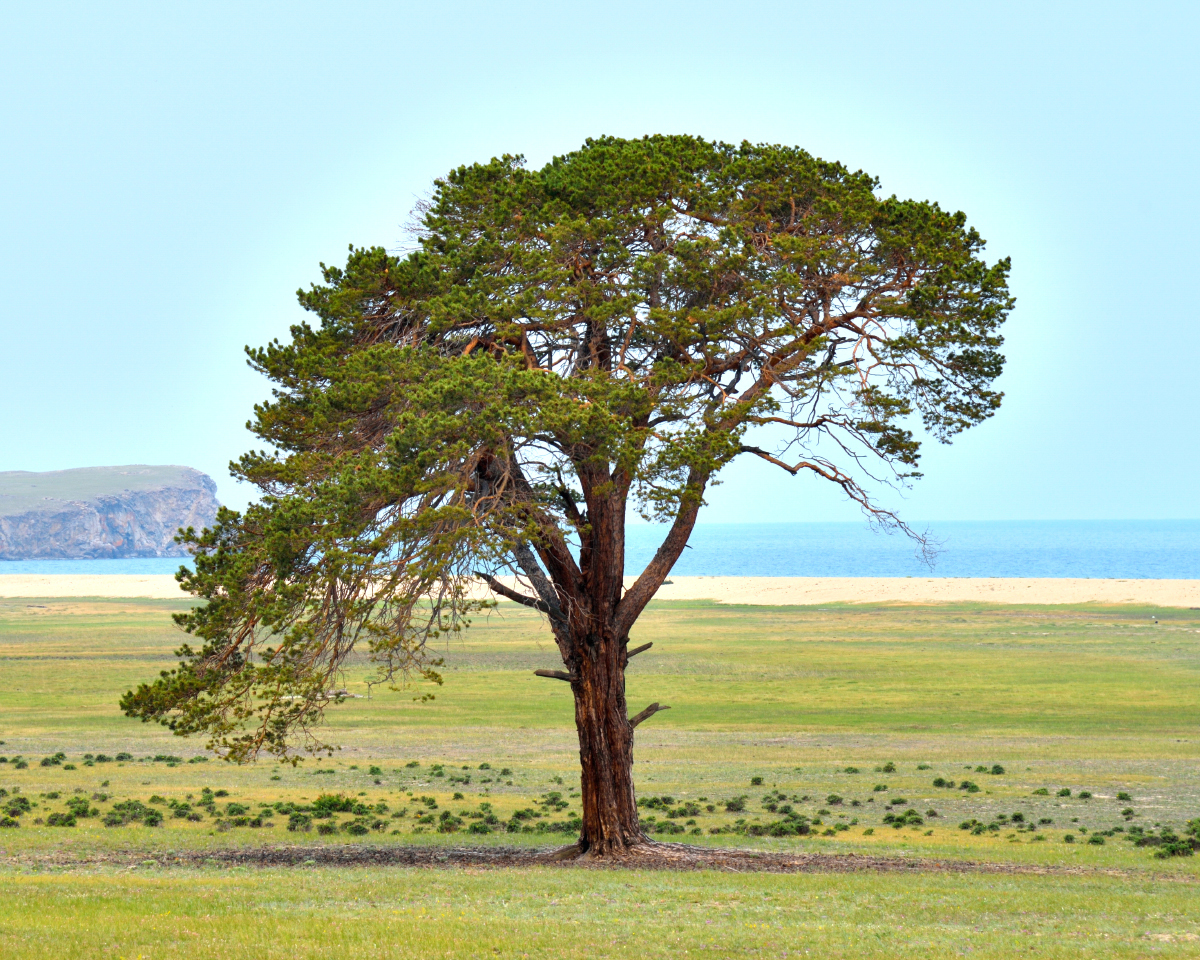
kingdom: Plantae
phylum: Tracheophyta
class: Pinopsida
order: Pinales
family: Pinaceae
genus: Pinus
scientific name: Pinus sylvestris
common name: Scots pine
